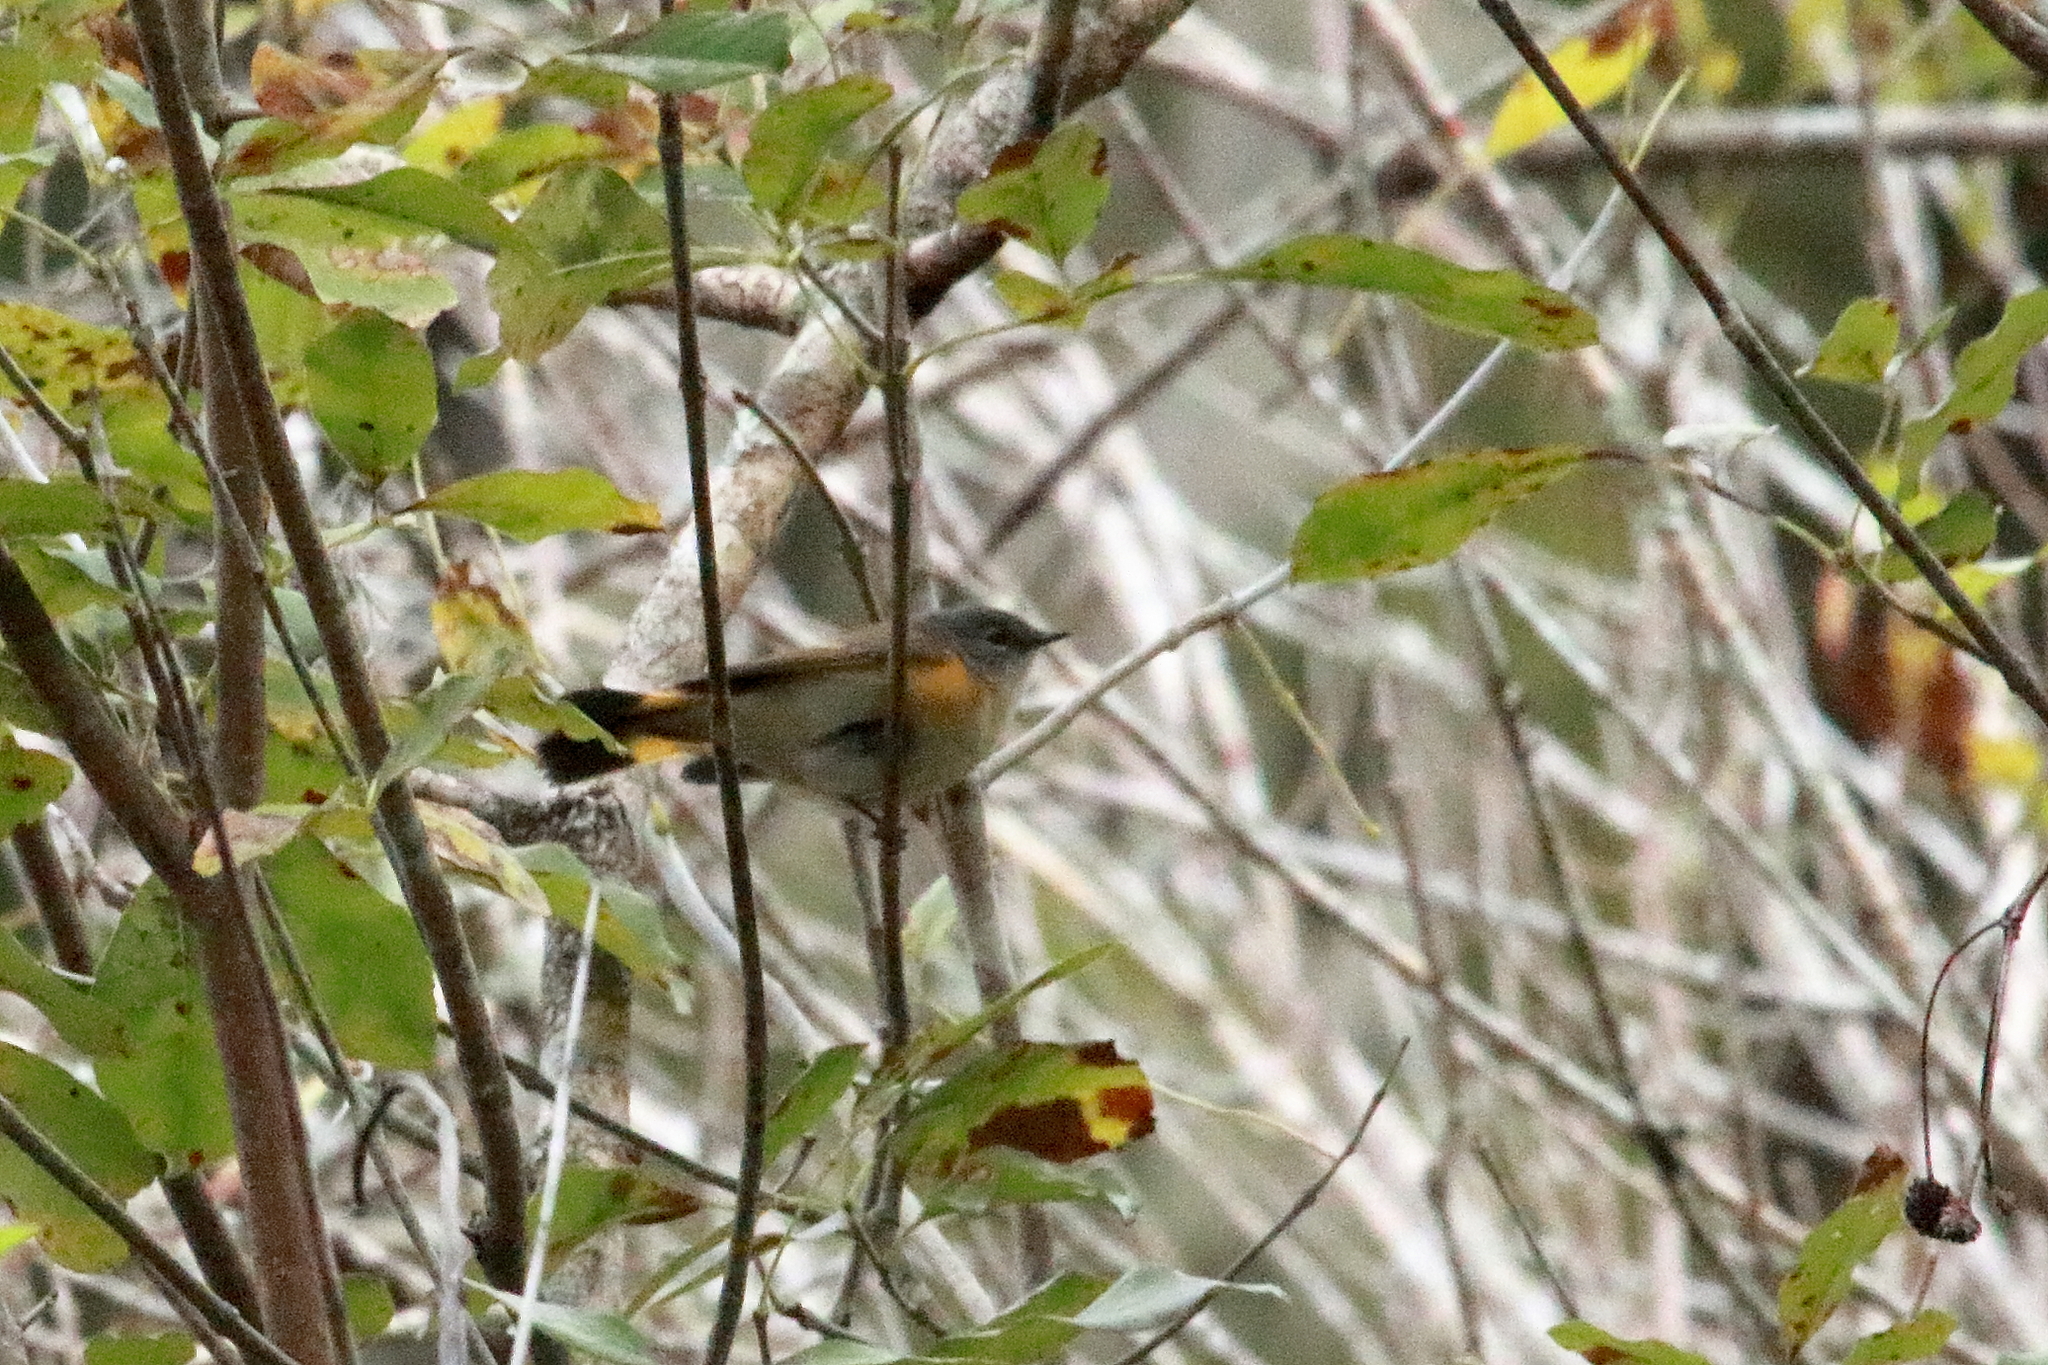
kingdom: Animalia
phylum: Chordata
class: Aves
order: Passeriformes
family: Parulidae
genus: Setophaga
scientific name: Setophaga ruticilla
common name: American redstart
